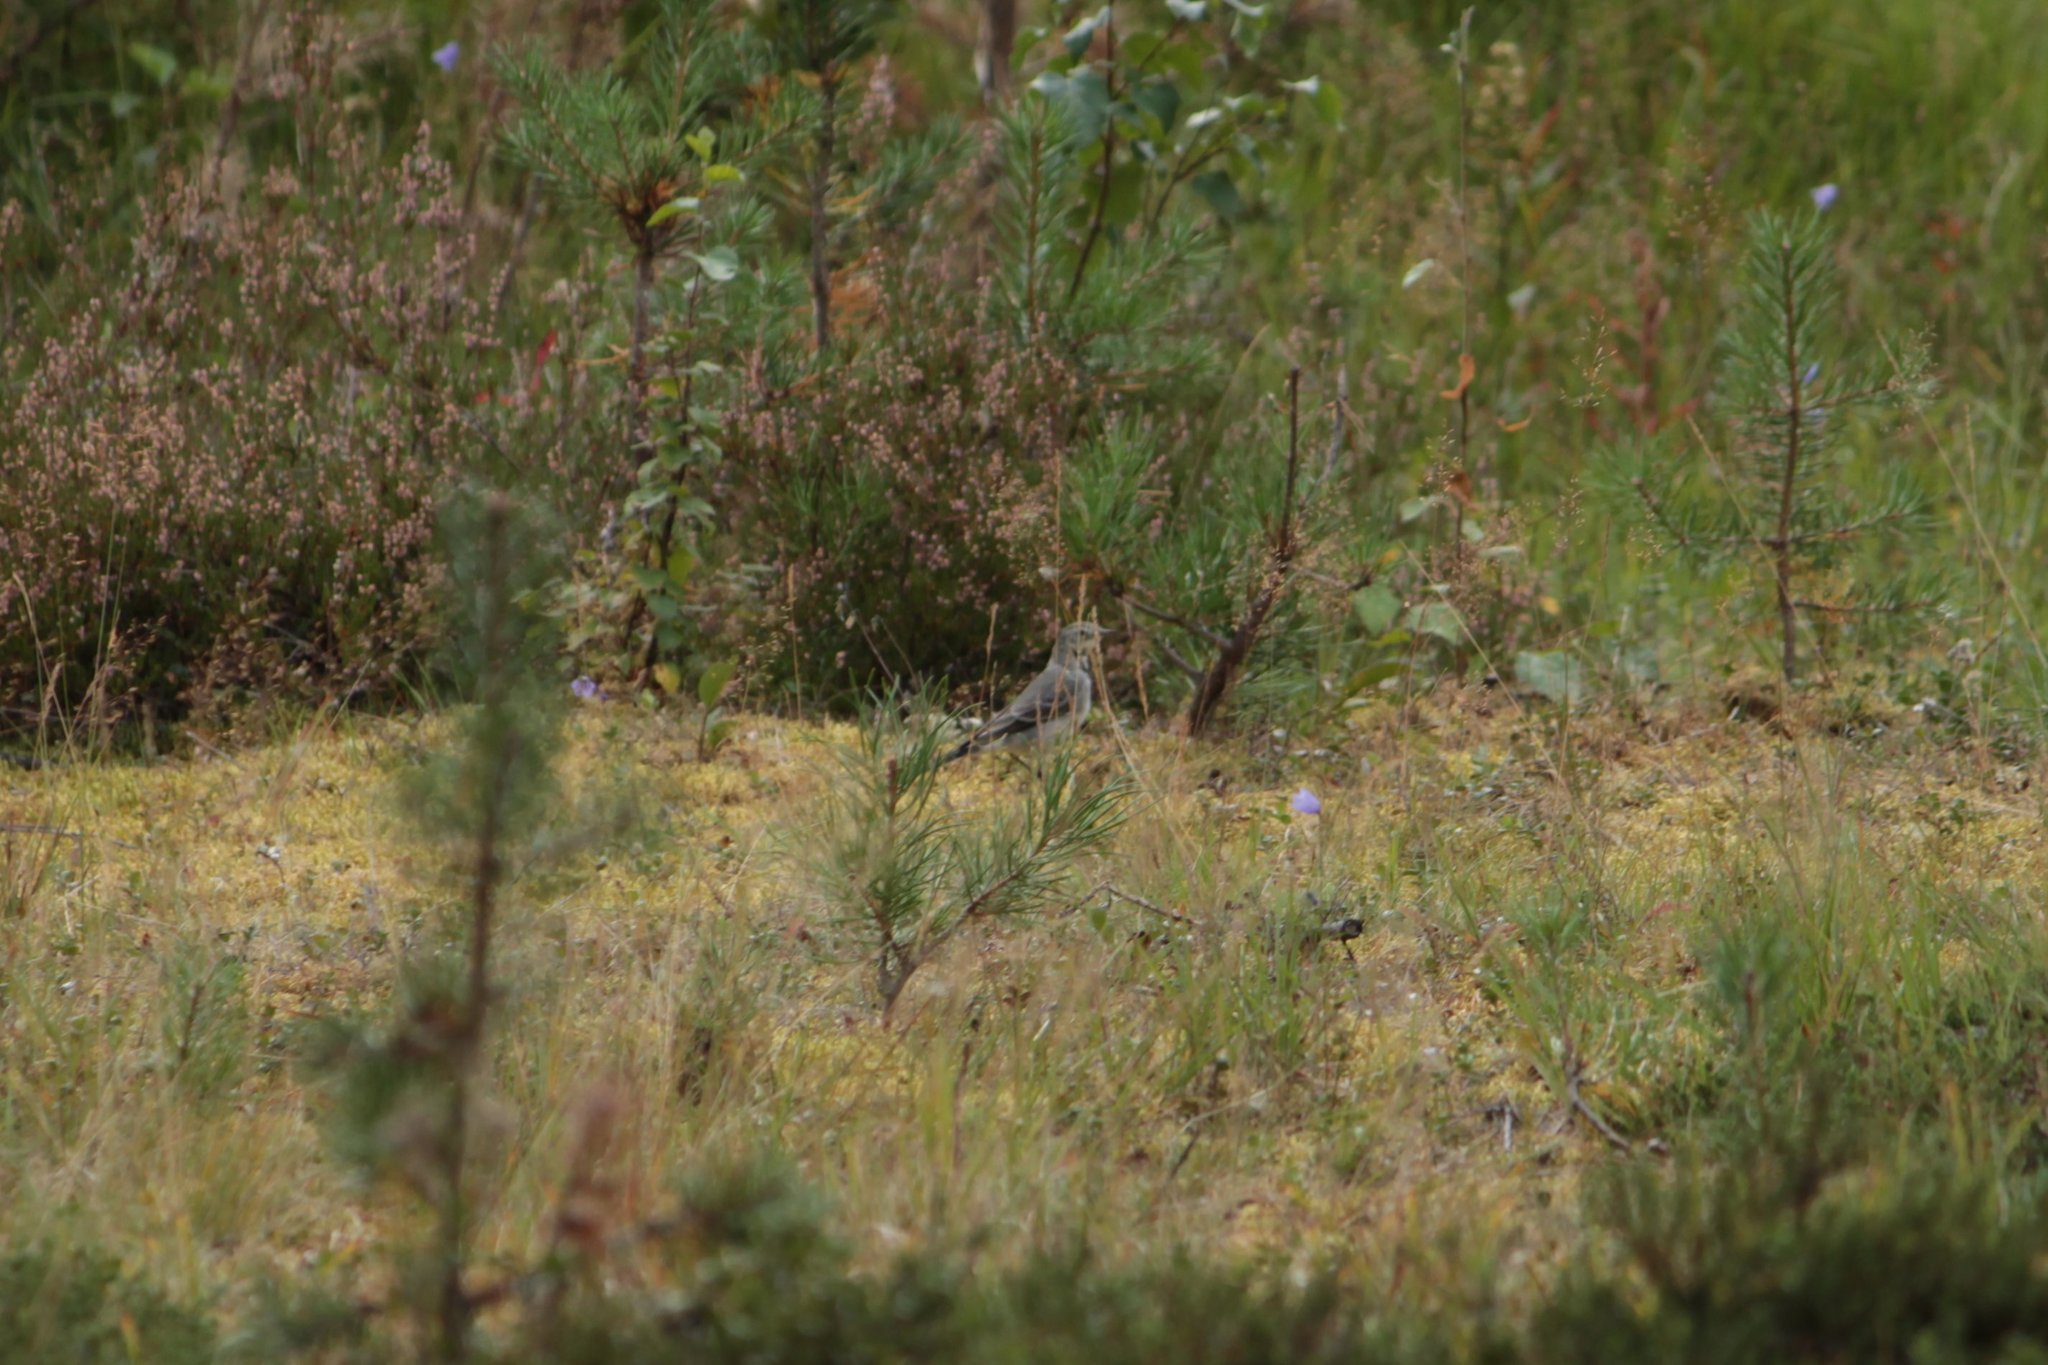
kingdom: Animalia
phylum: Chordata
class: Aves
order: Passeriformes
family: Motacillidae
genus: Motacilla
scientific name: Motacilla alba
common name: White wagtail
